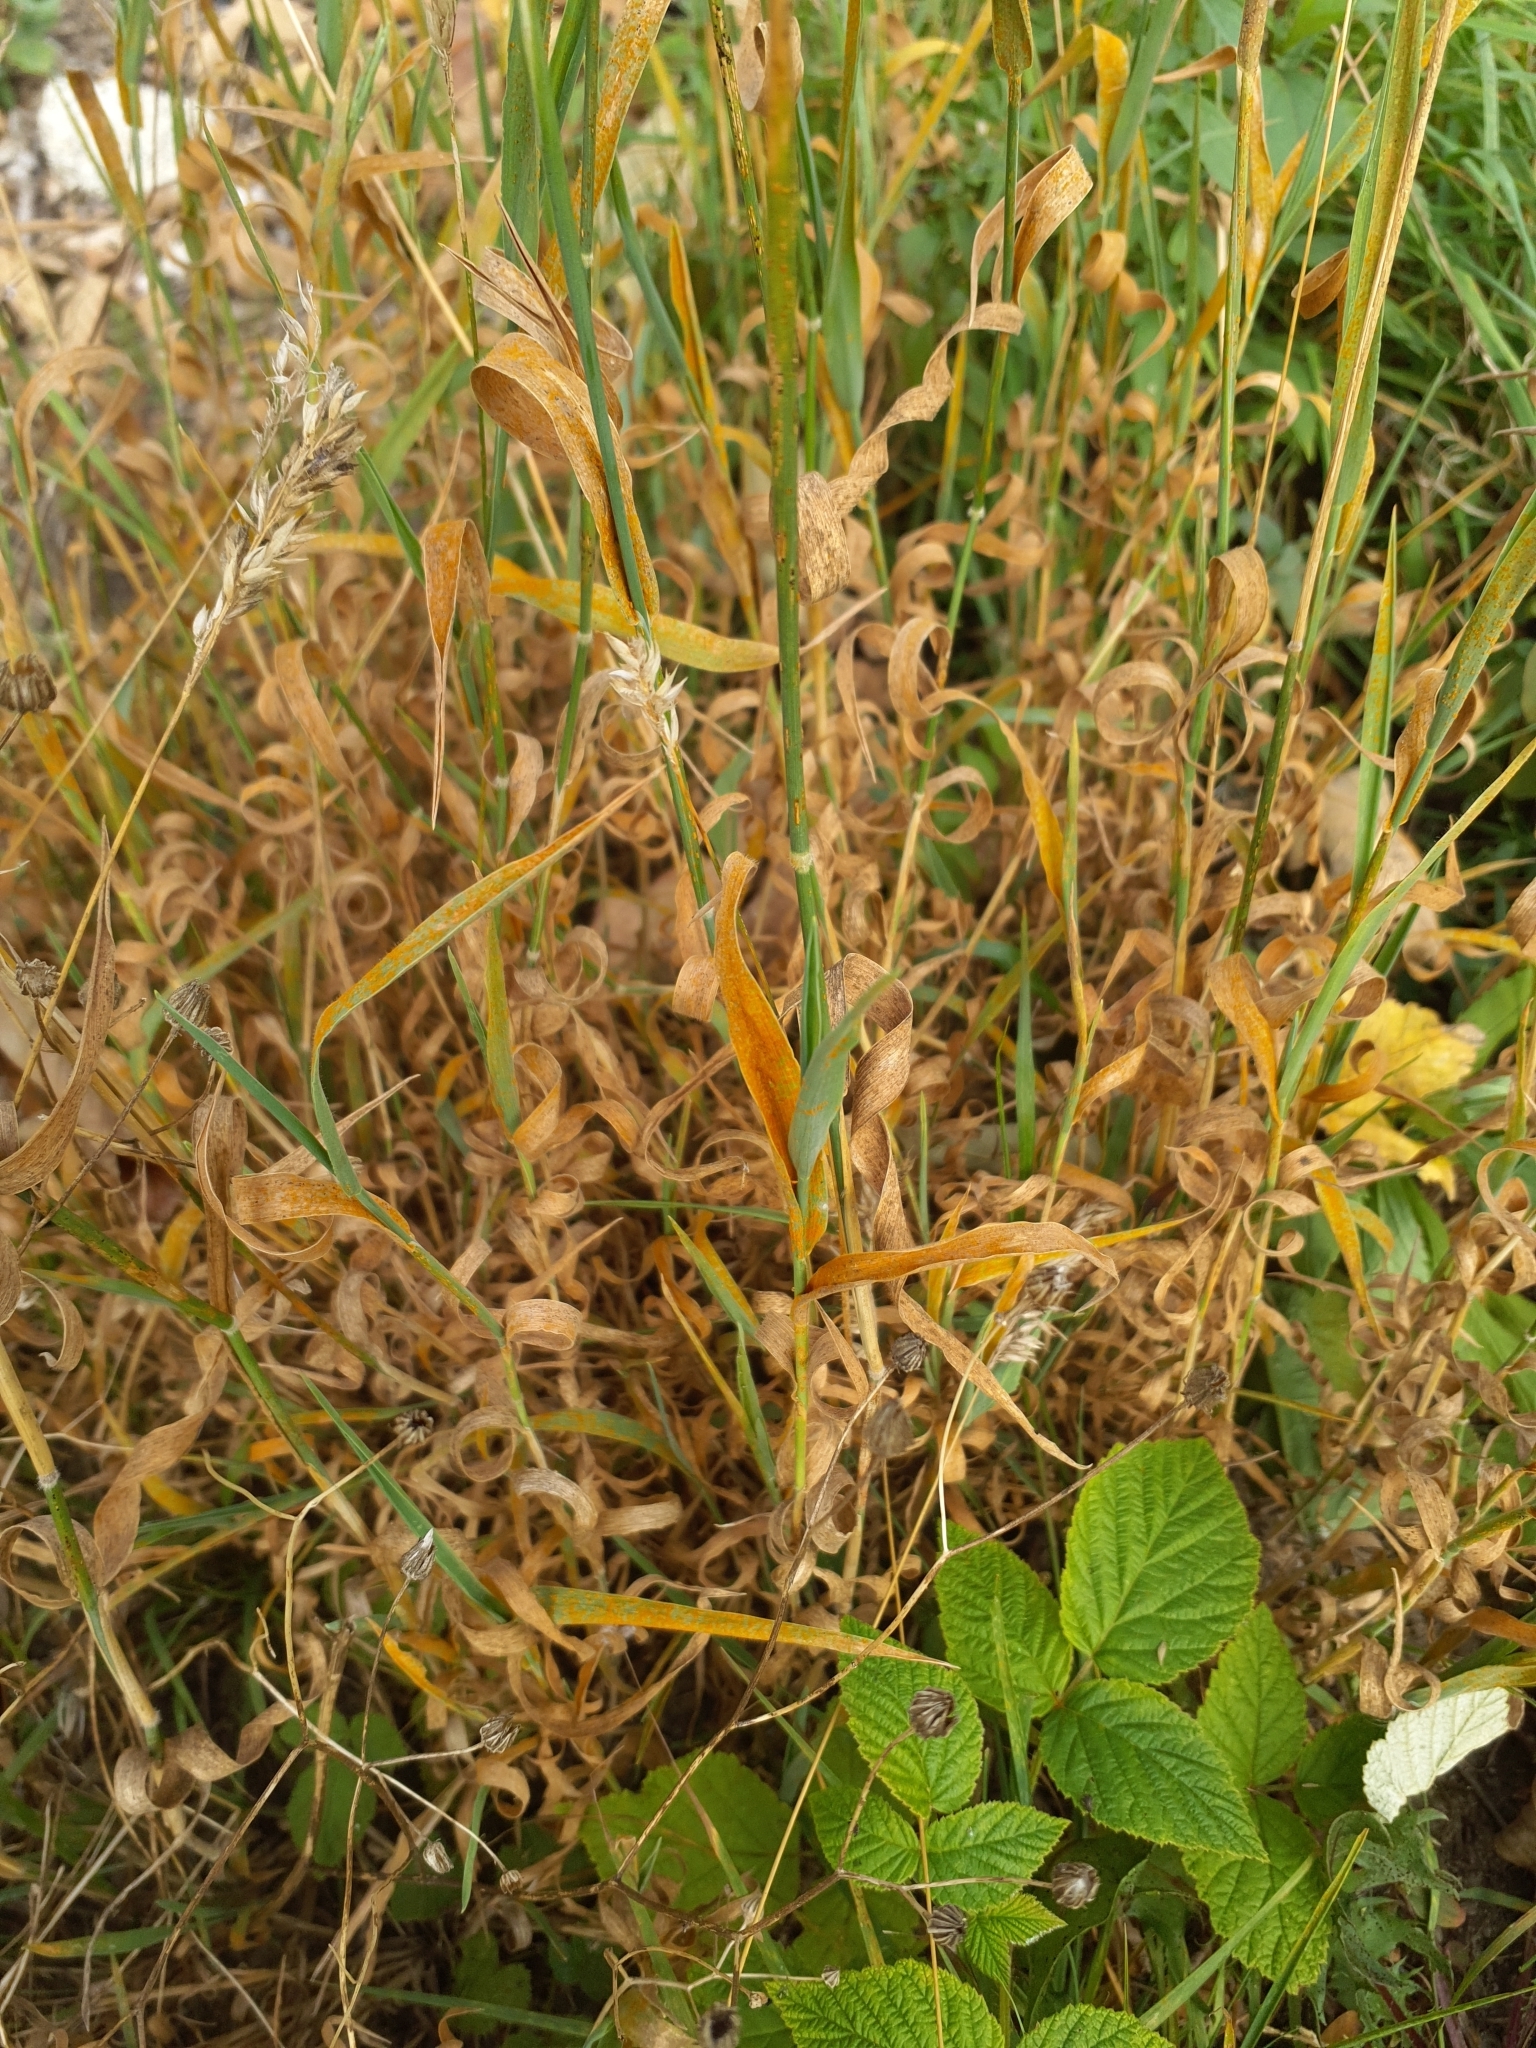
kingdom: Plantae
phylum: Tracheophyta
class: Liliopsida
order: Poales
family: Poaceae
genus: Holcus
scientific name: Holcus mollis
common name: Creeping velvetgrass
